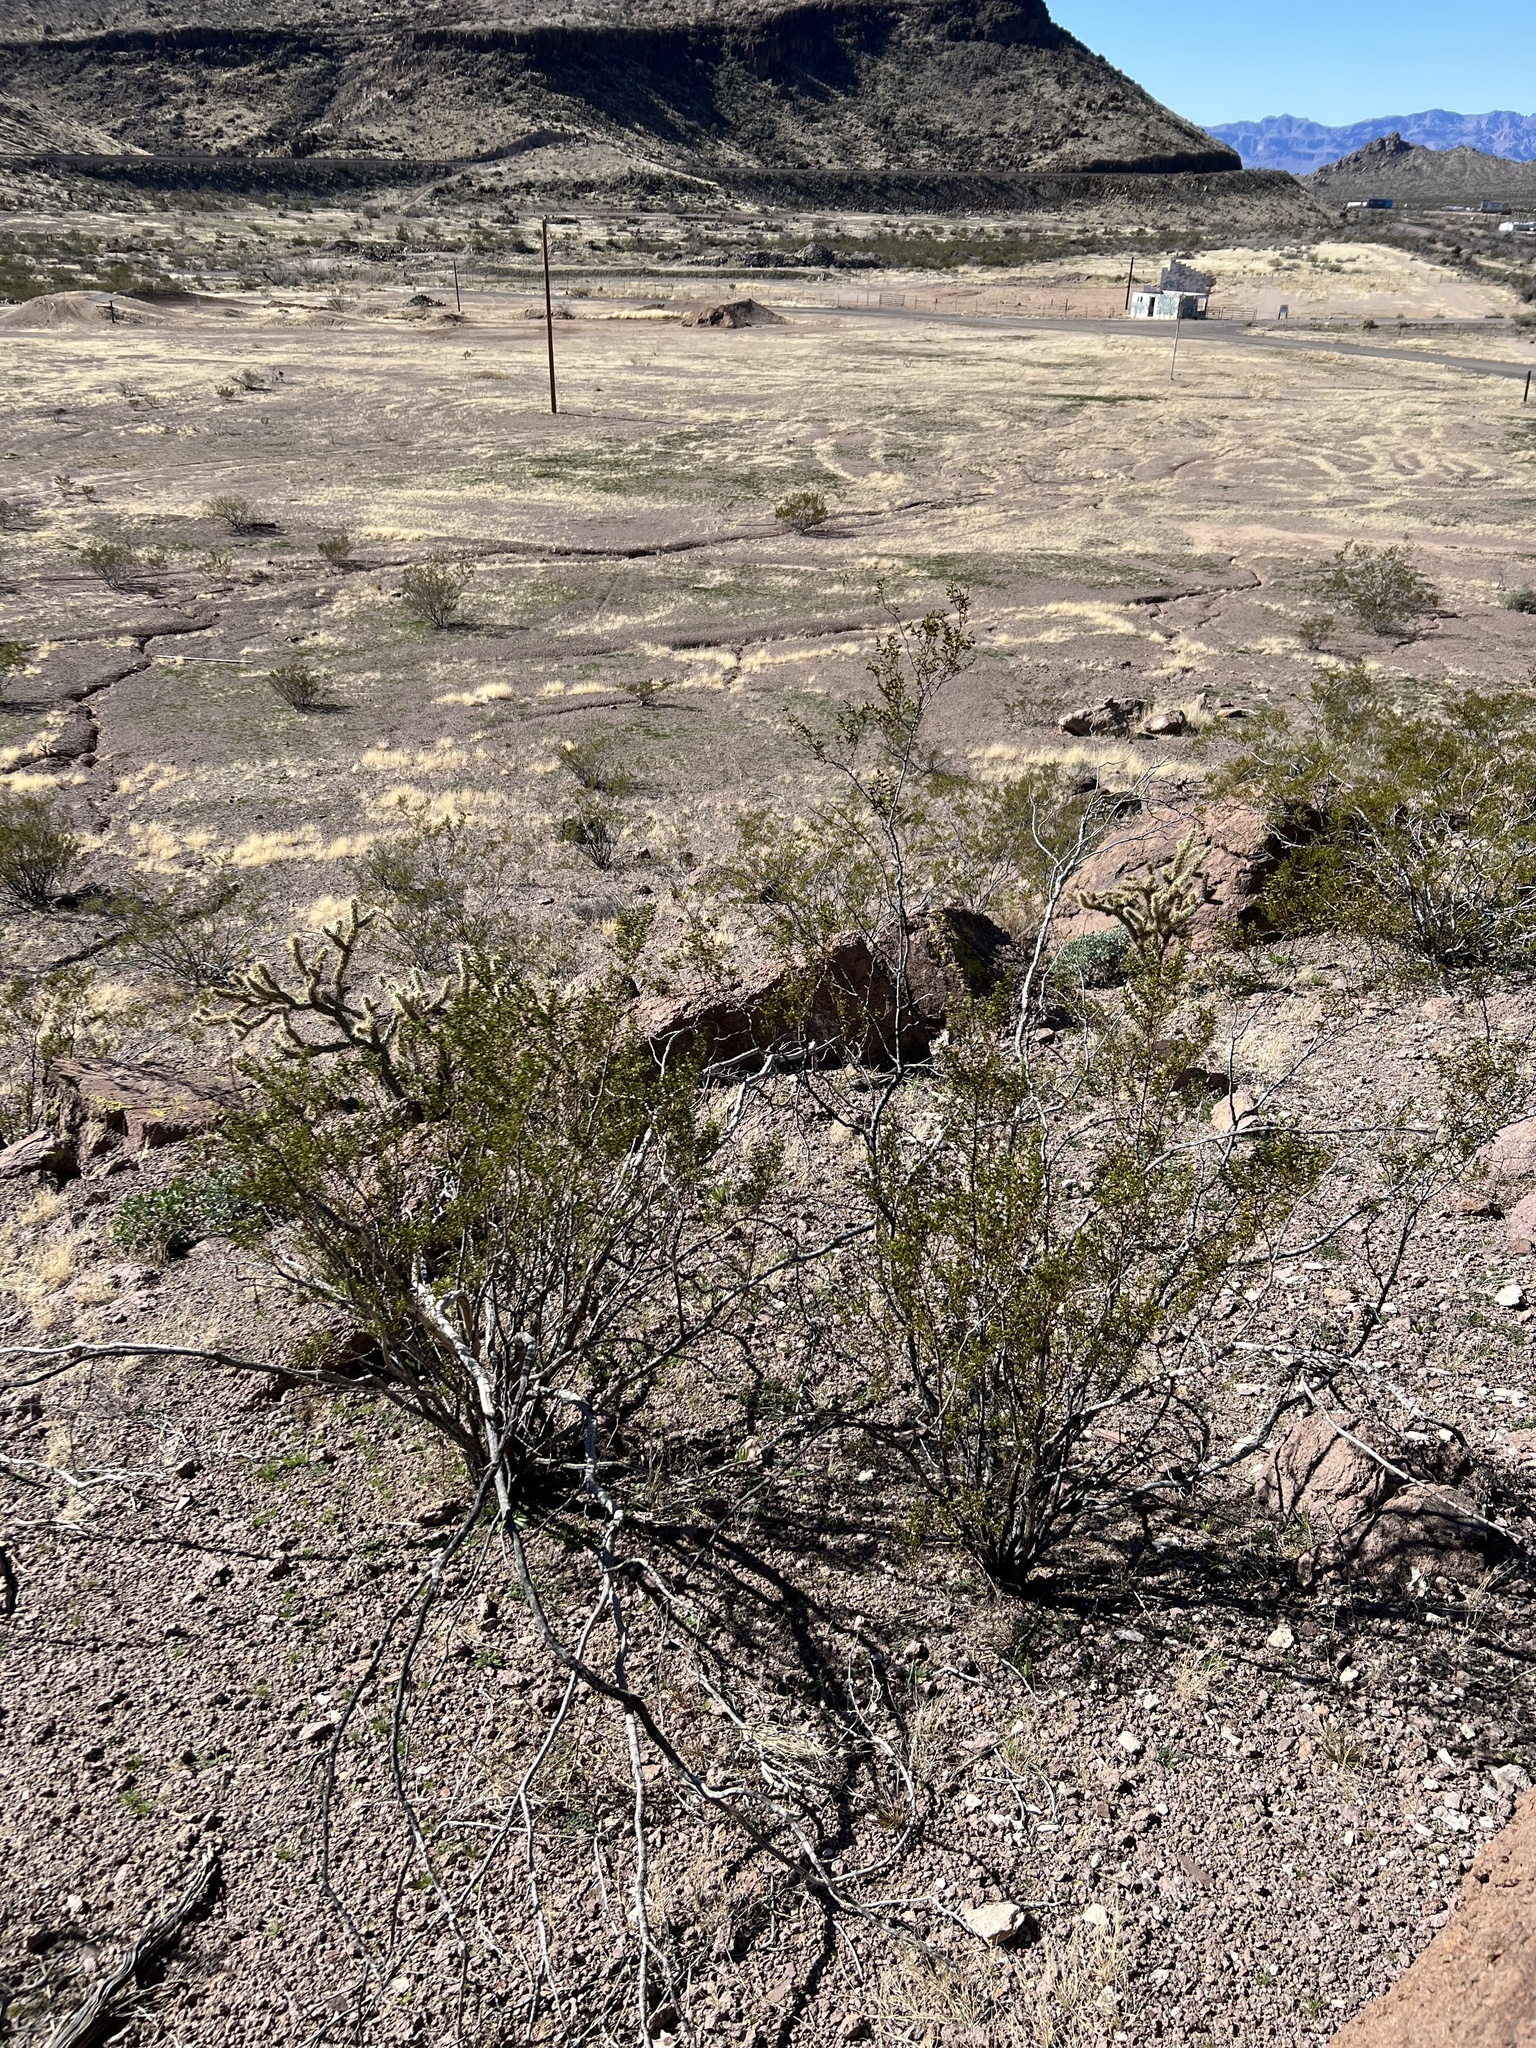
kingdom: Plantae
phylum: Tracheophyta
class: Magnoliopsida
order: Zygophyllales
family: Zygophyllaceae
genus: Larrea
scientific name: Larrea tridentata
